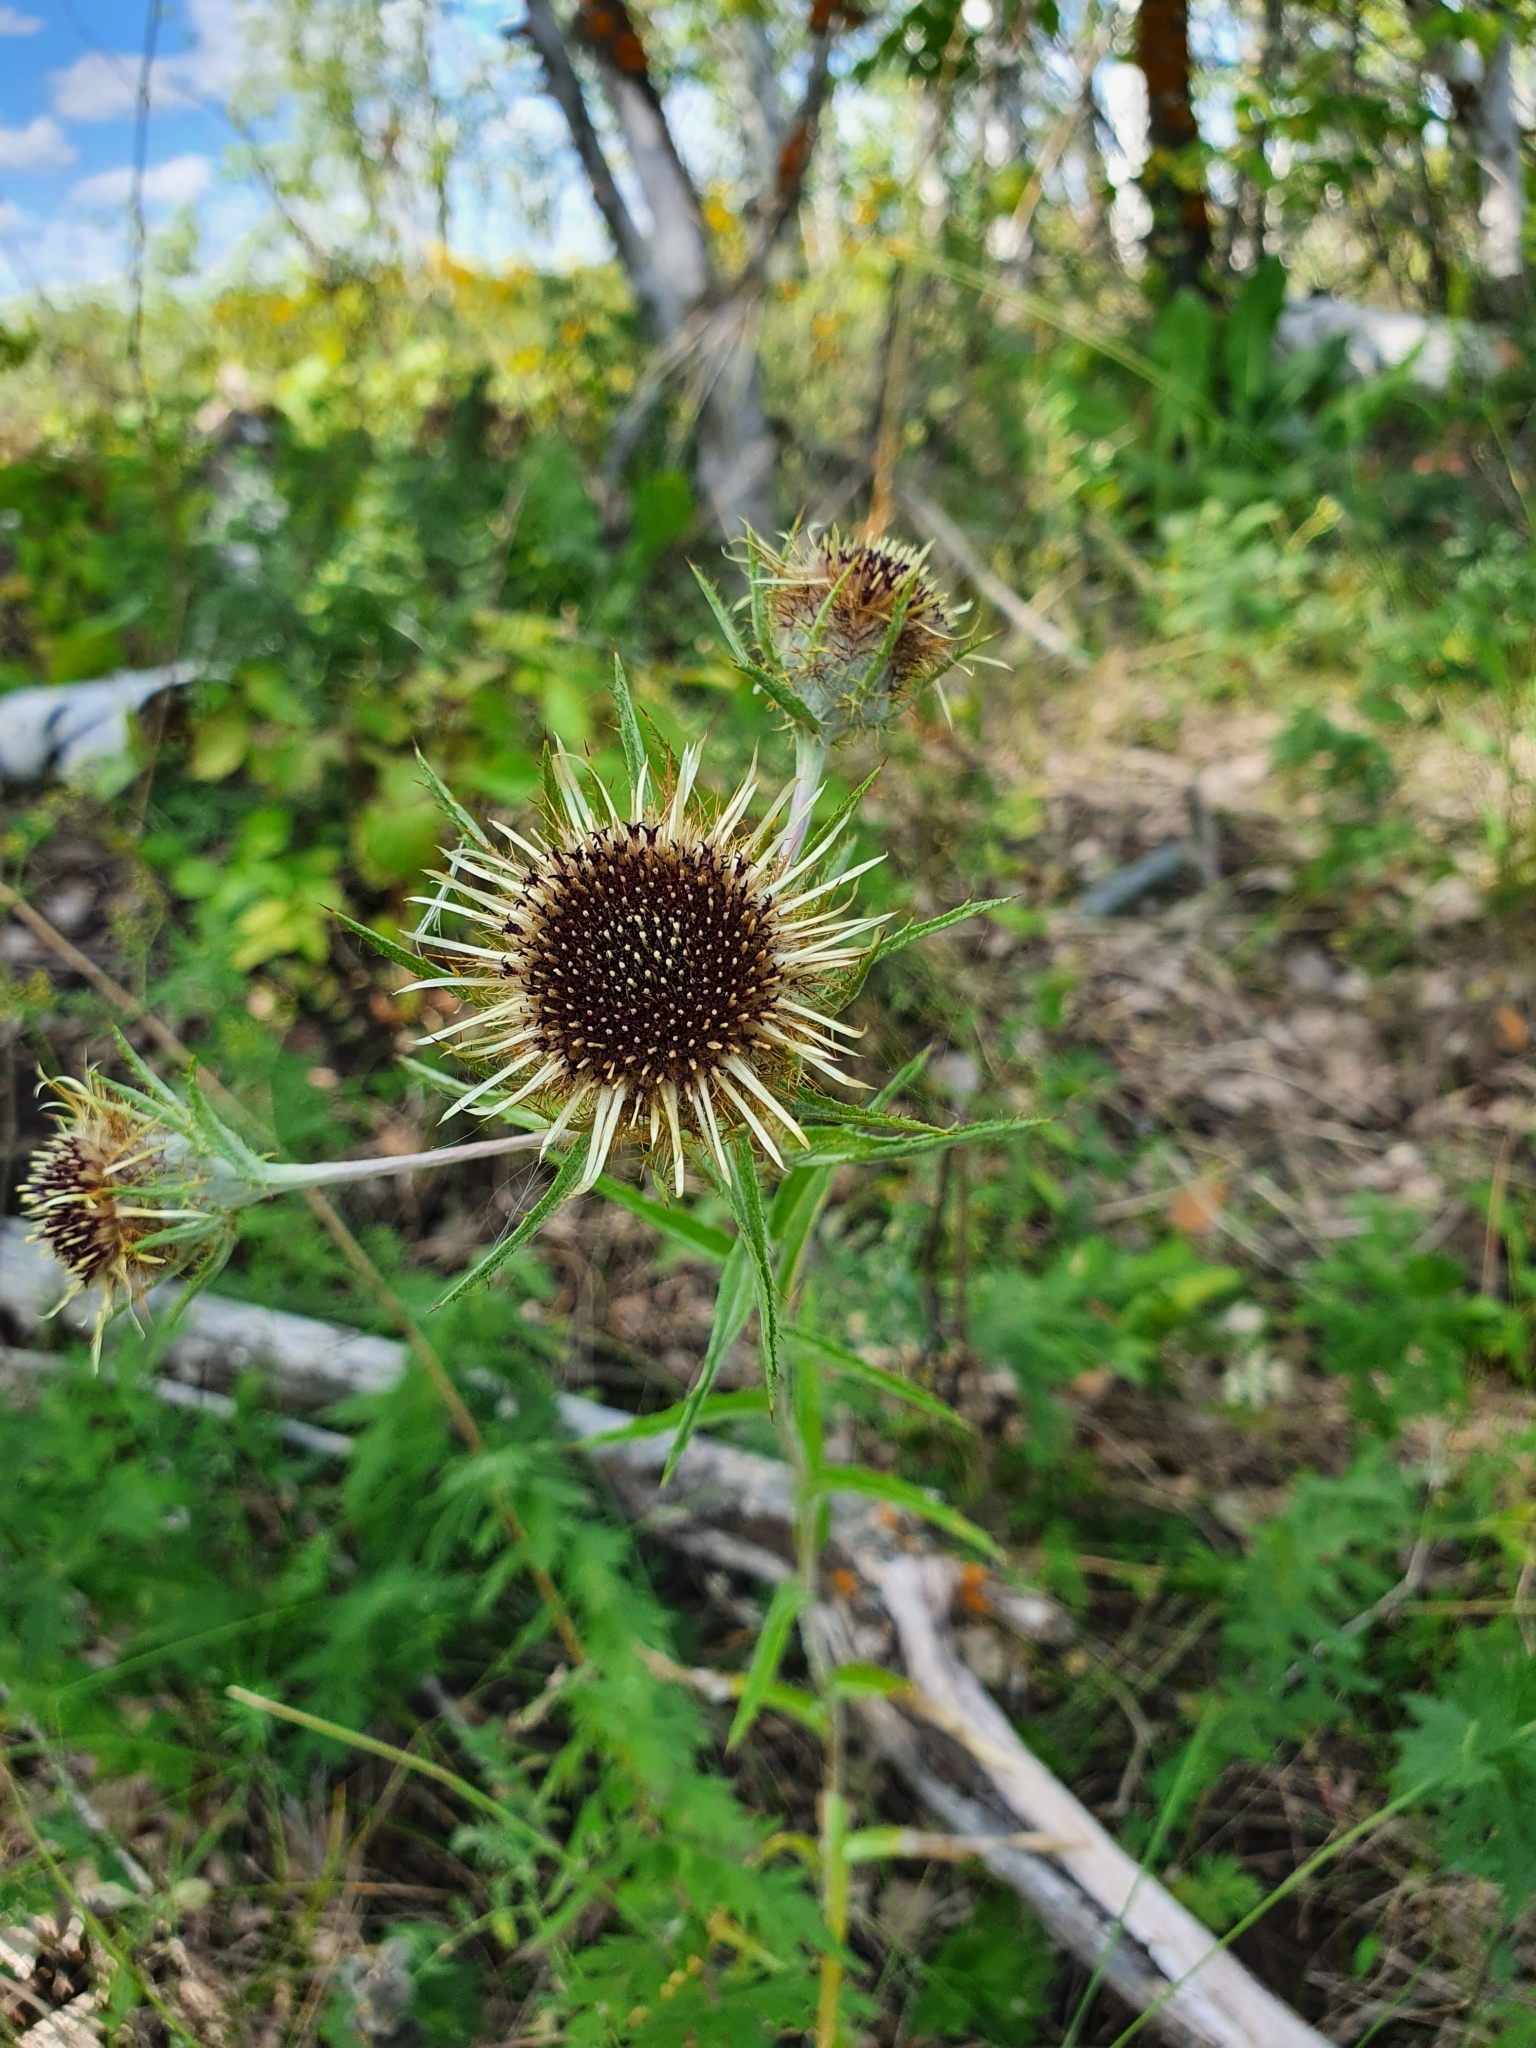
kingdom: Plantae
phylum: Tracheophyta
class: Magnoliopsida
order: Asterales
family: Asteraceae
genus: Carlina
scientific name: Carlina biebersteinii
